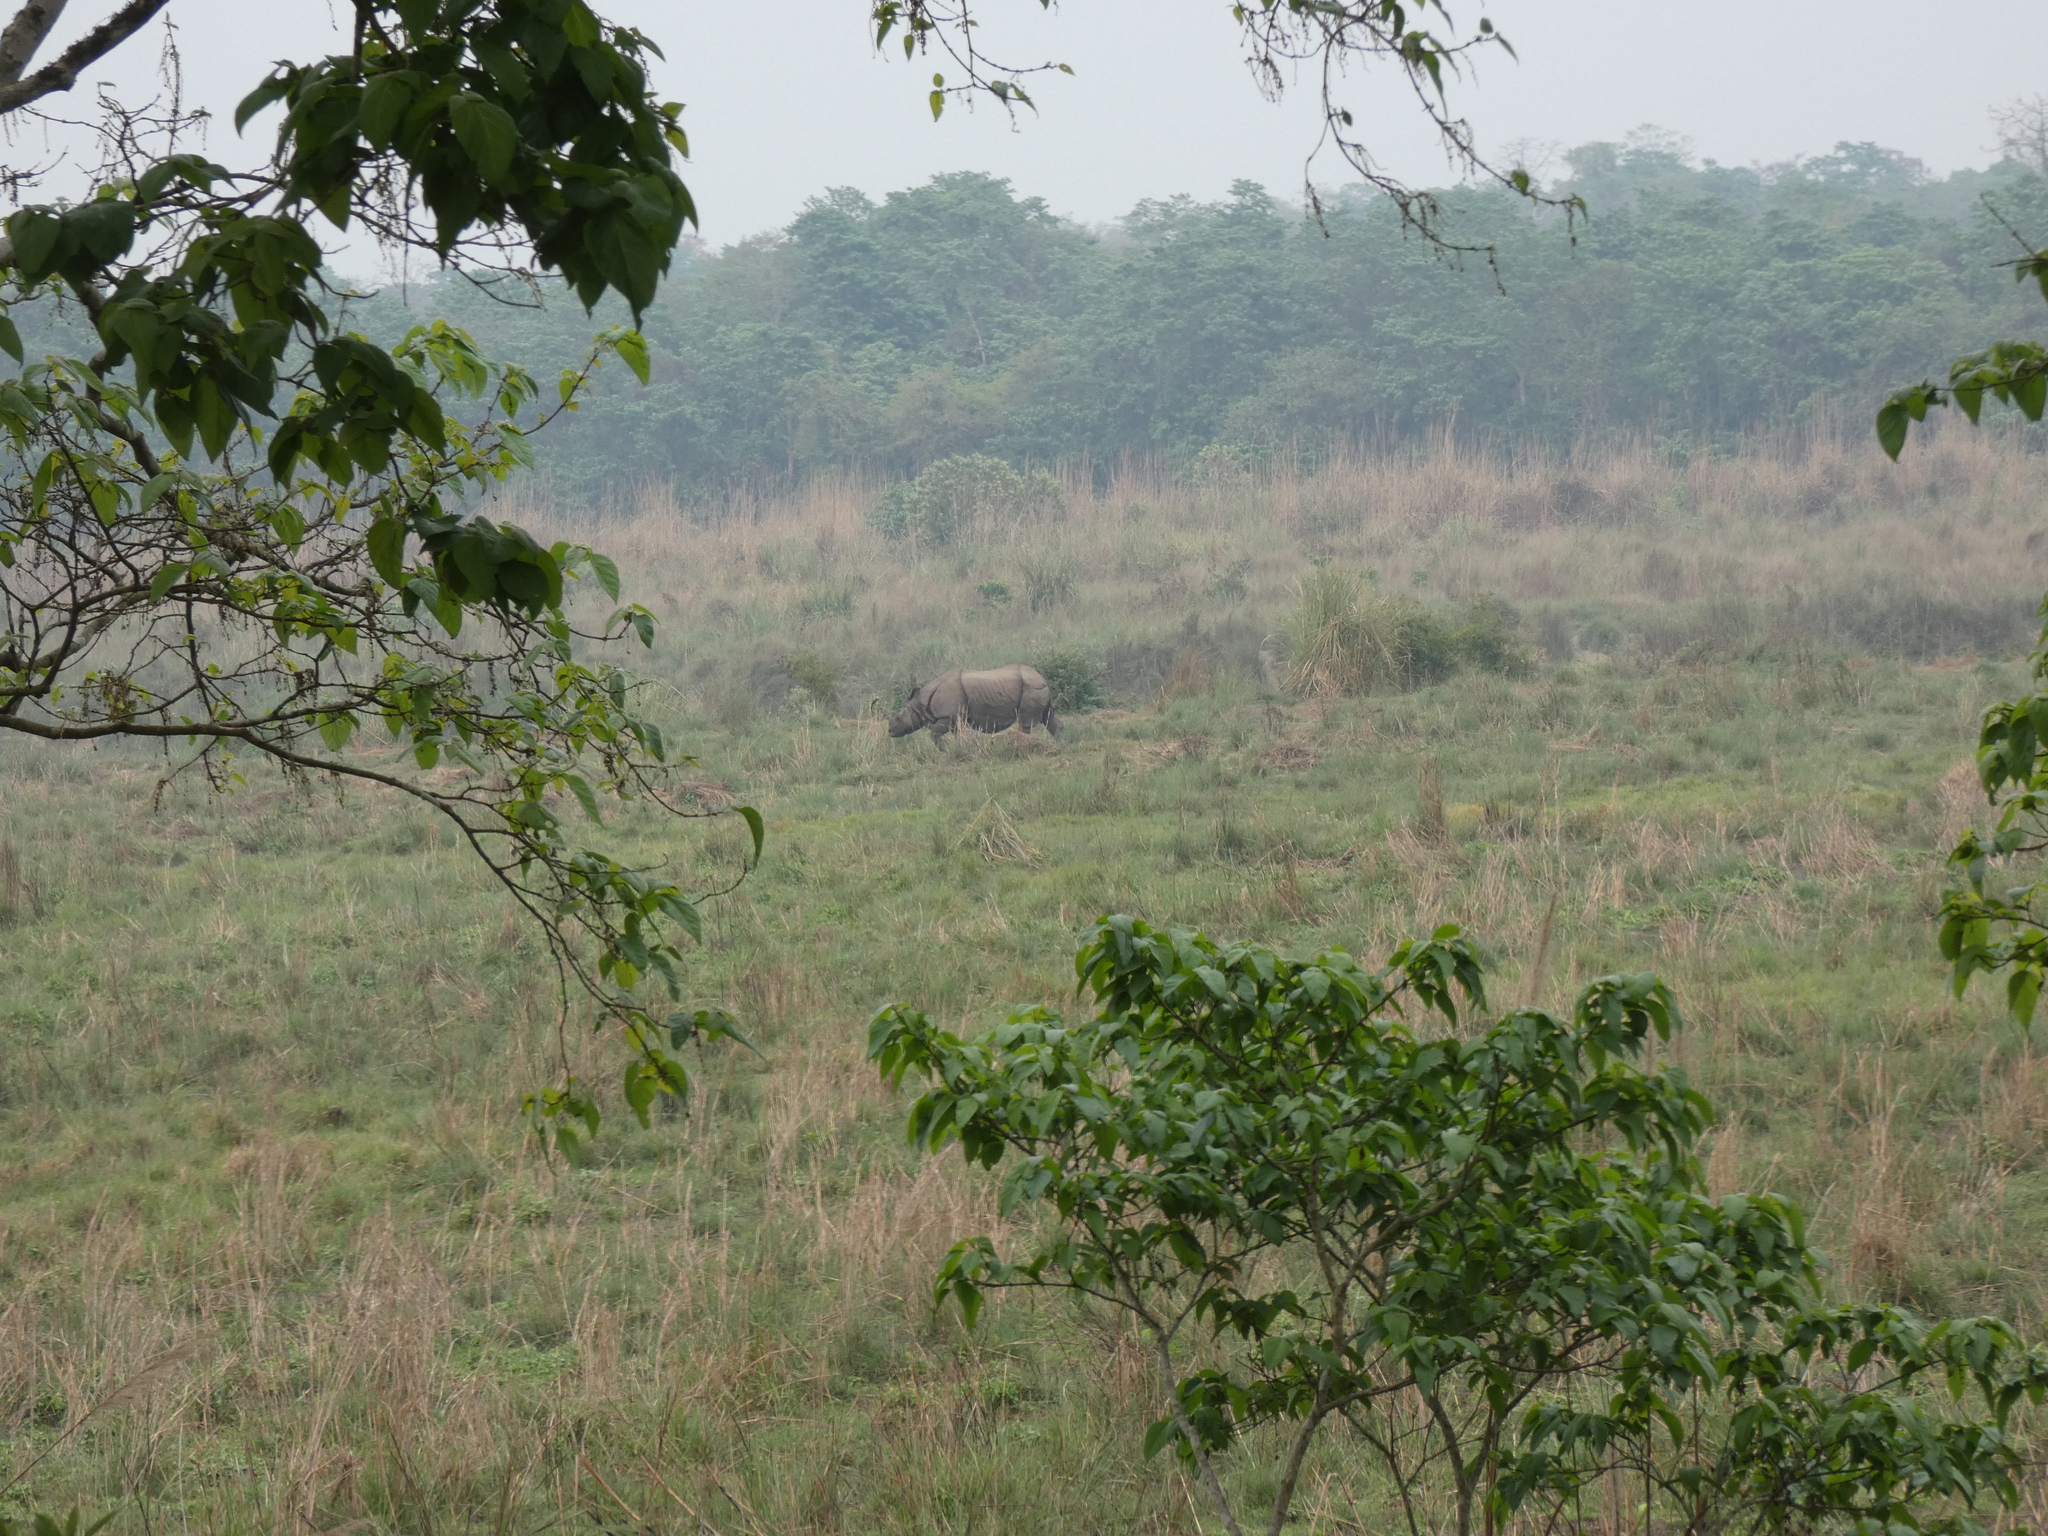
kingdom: Animalia
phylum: Chordata
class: Mammalia
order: Perissodactyla
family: Rhinocerotidae
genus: Rhinoceros
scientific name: Rhinoceros unicornis
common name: Indian rhinoceros
